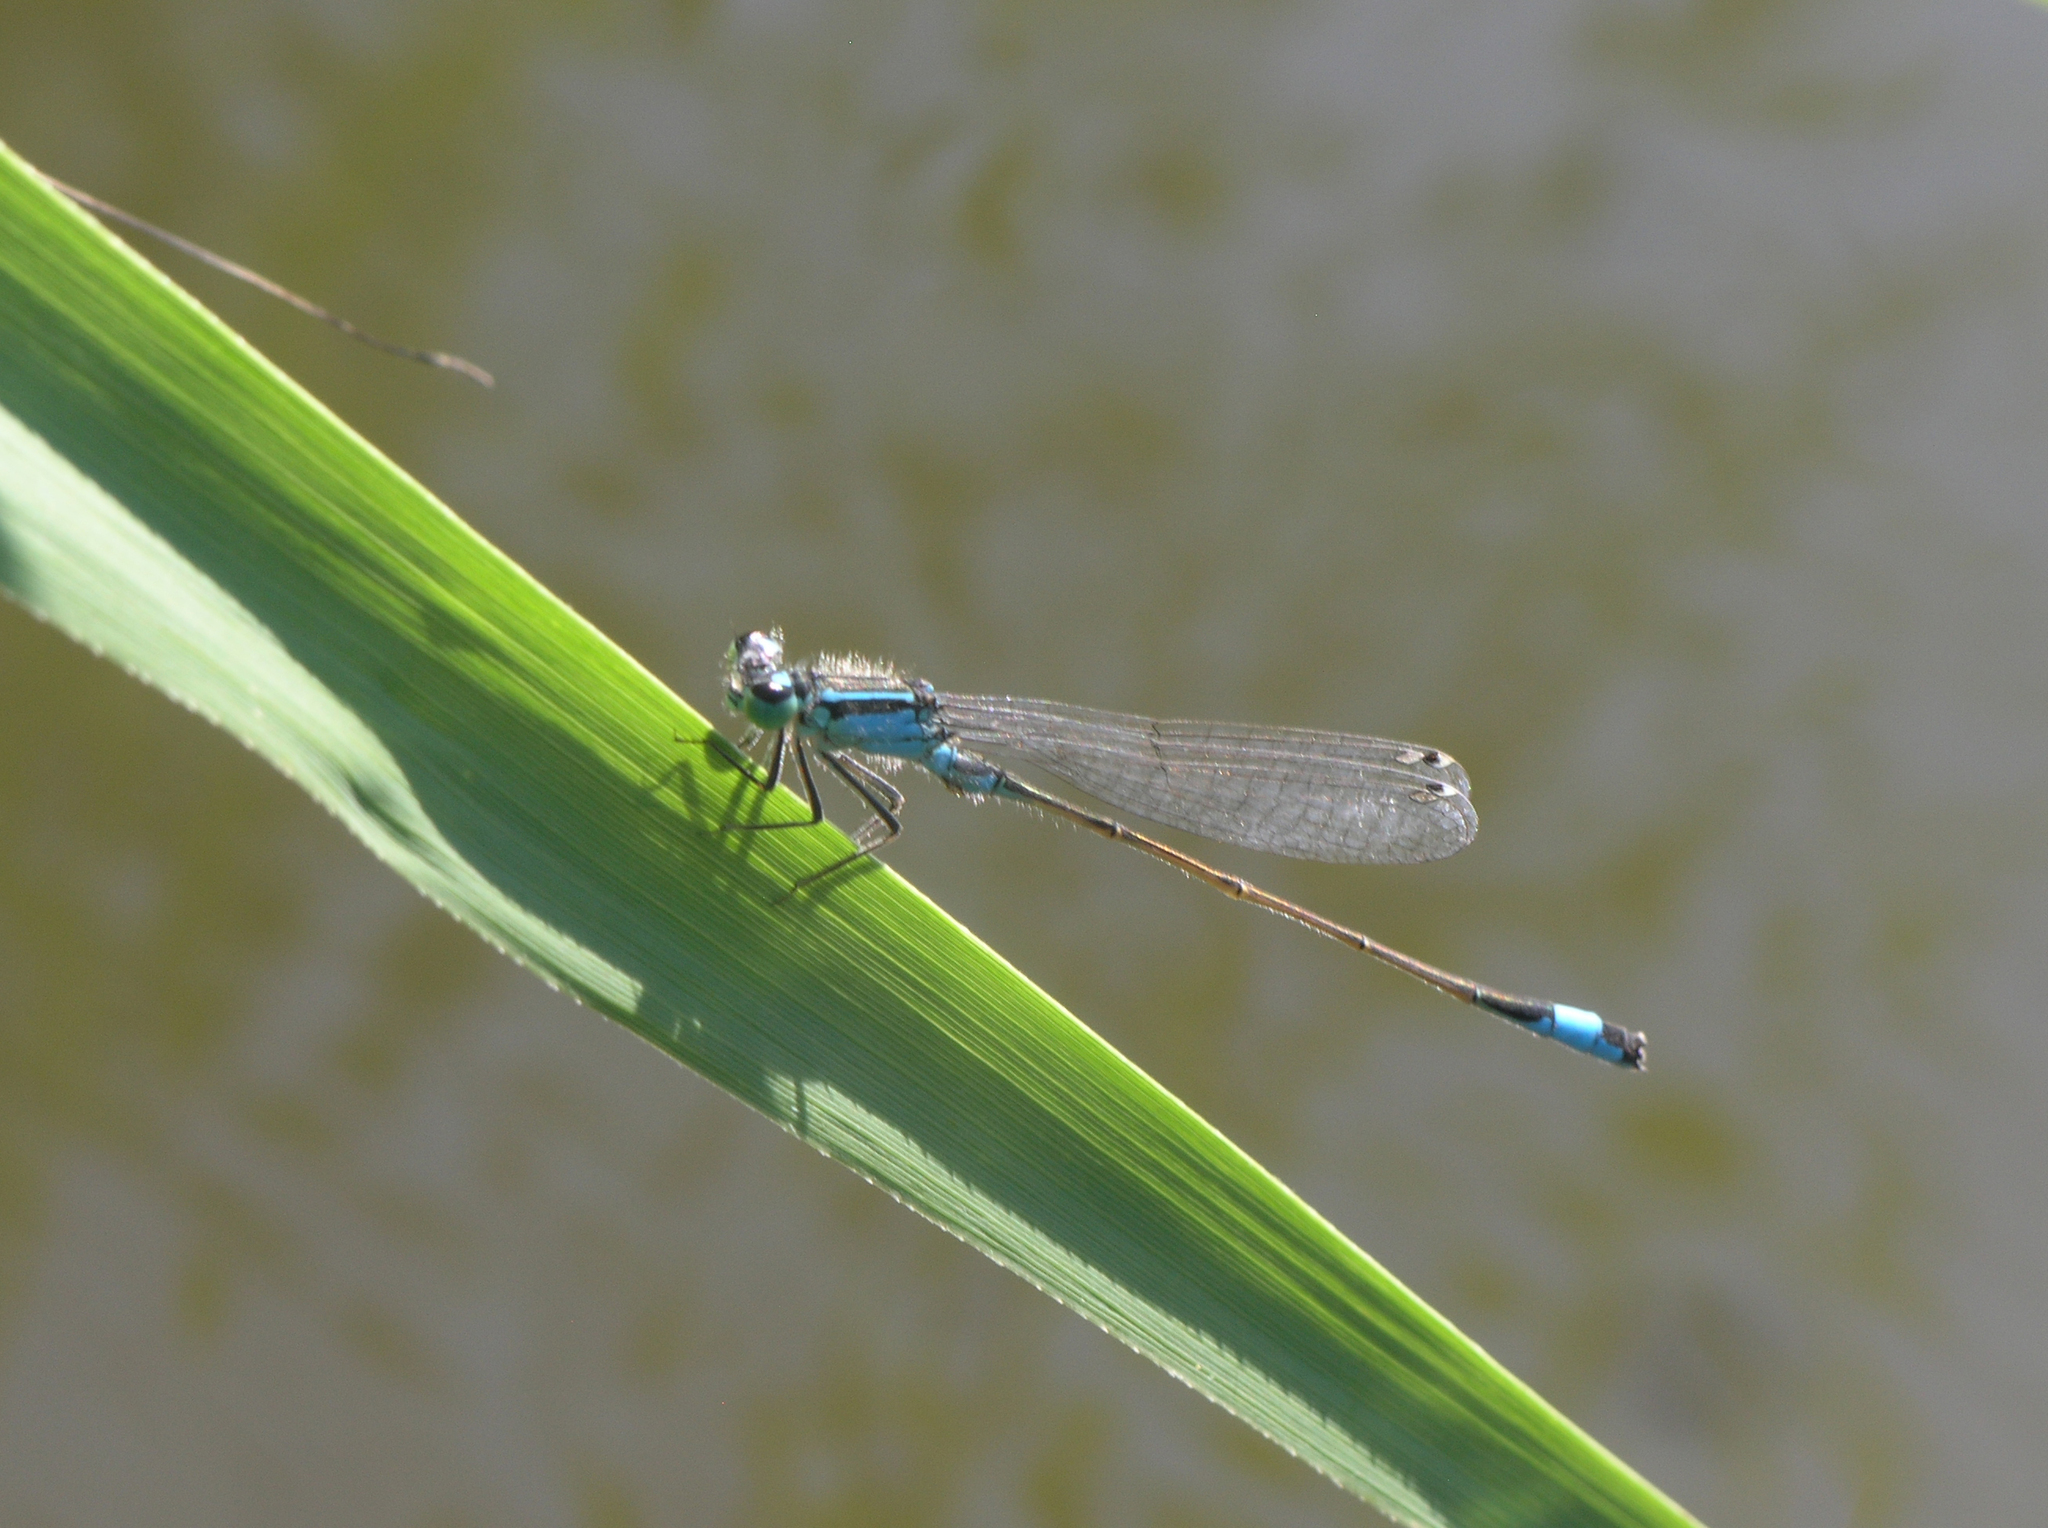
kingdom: Animalia
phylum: Arthropoda
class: Insecta
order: Odonata
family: Coenagrionidae
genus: Ischnura
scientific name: Ischnura elegans
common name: Blue-tailed damselfly
